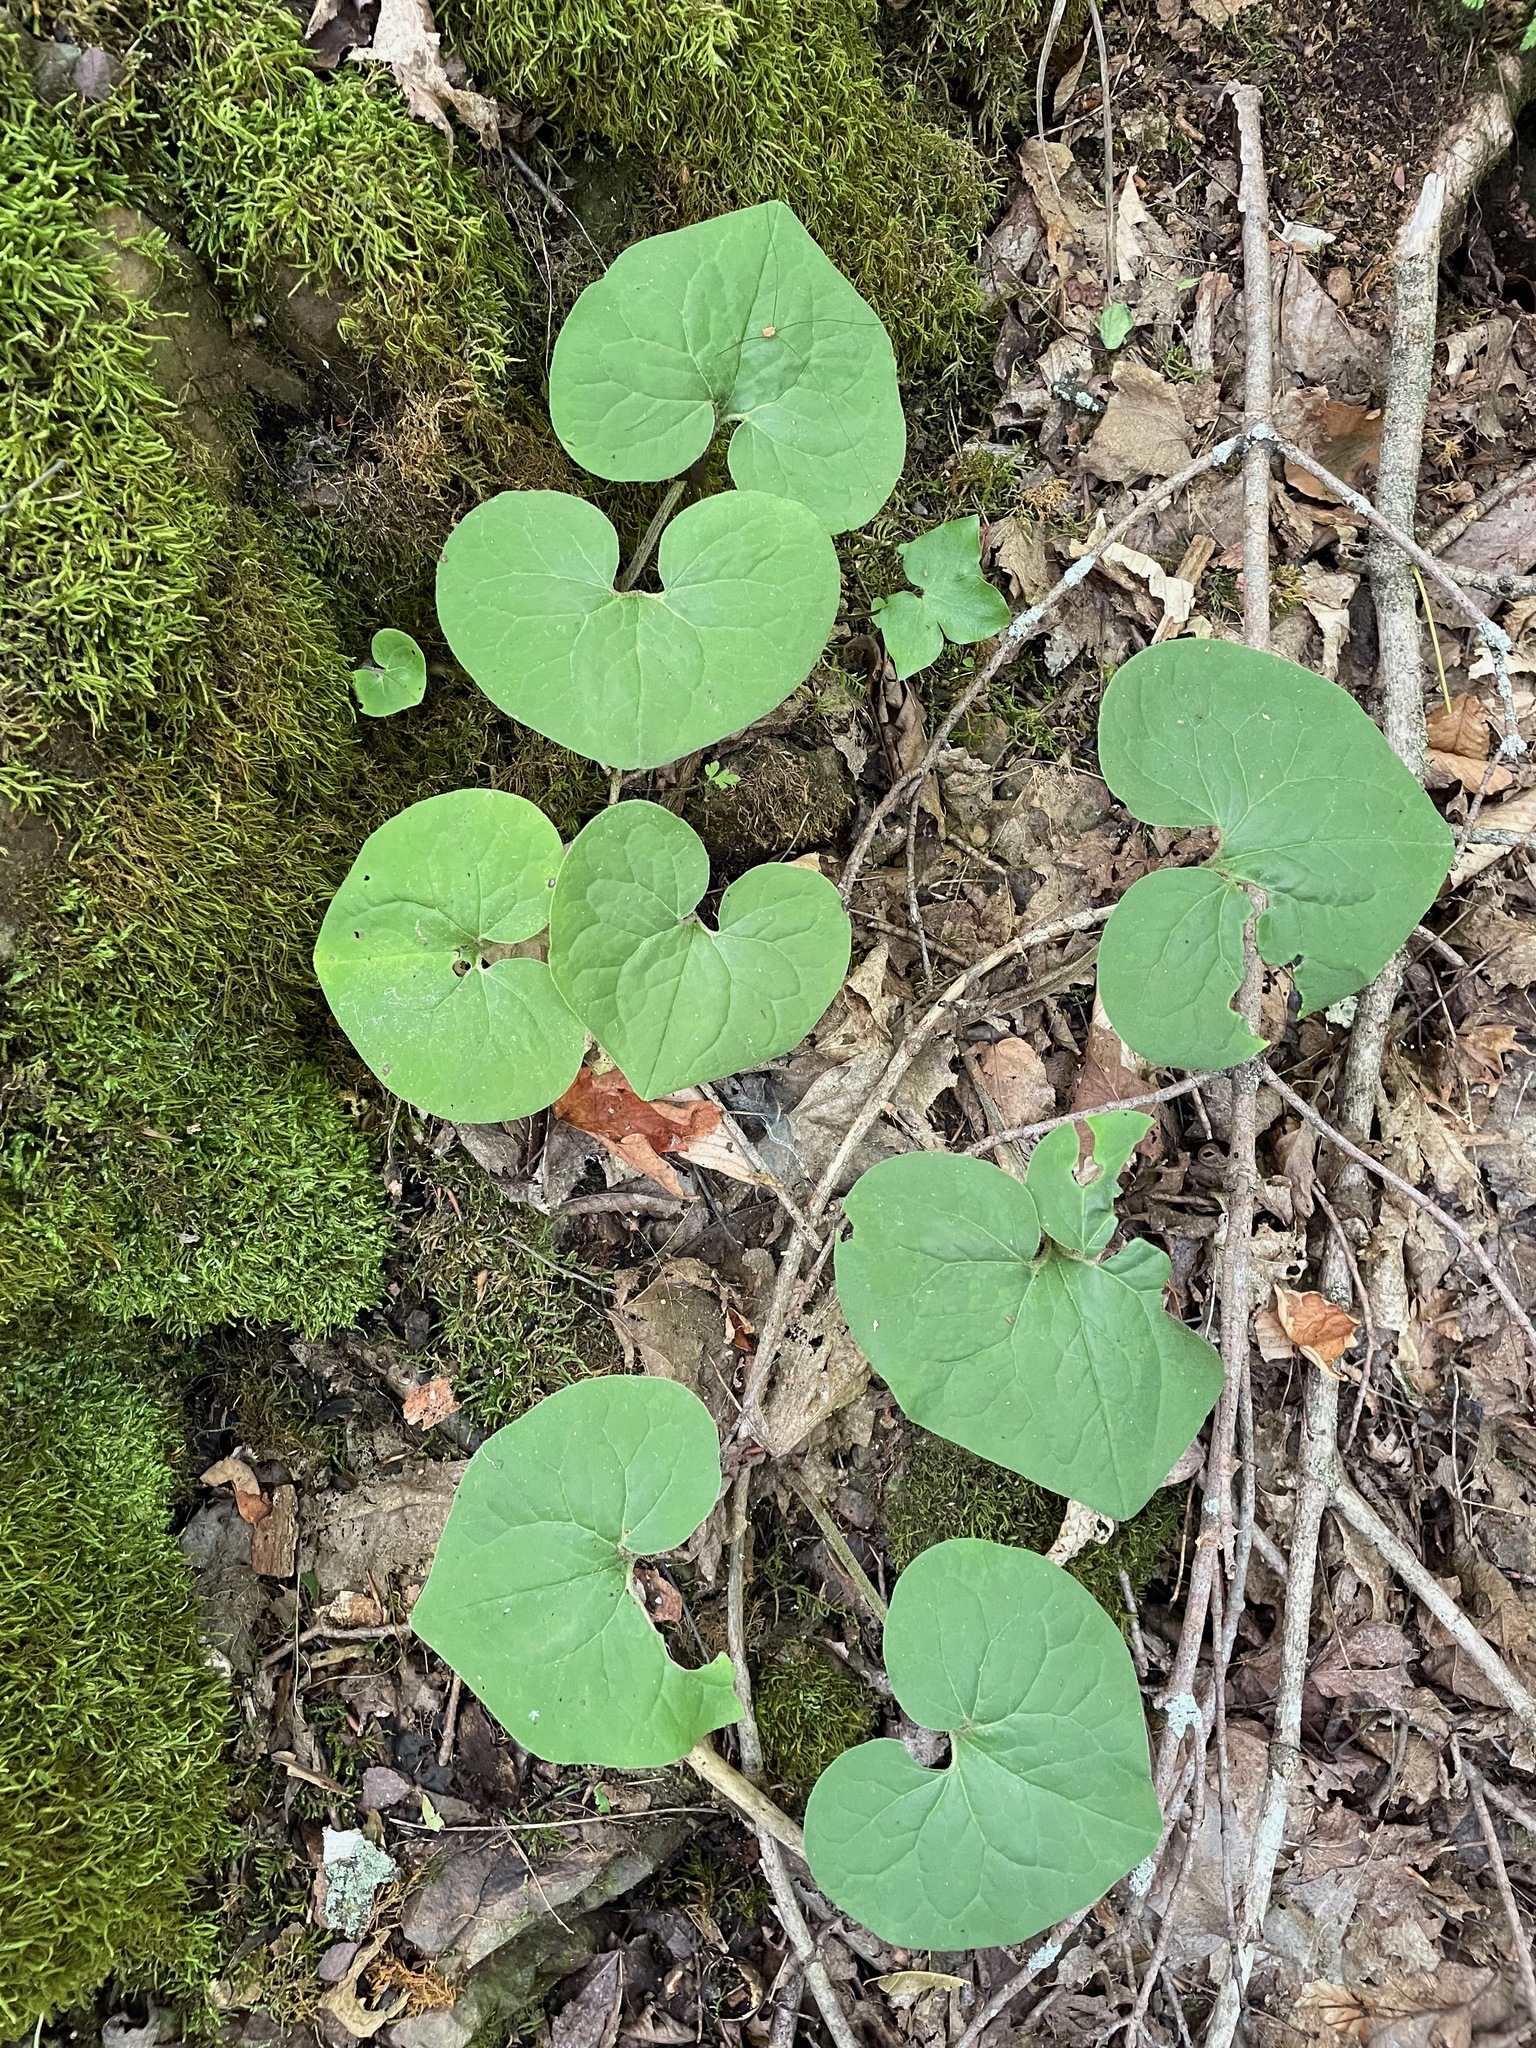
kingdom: Plantae
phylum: Tracheophyta
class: Magnoliopsida
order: Piperales
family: Aristolochiaceae
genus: Asarum
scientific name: Asarum canadense
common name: Wild ginger
